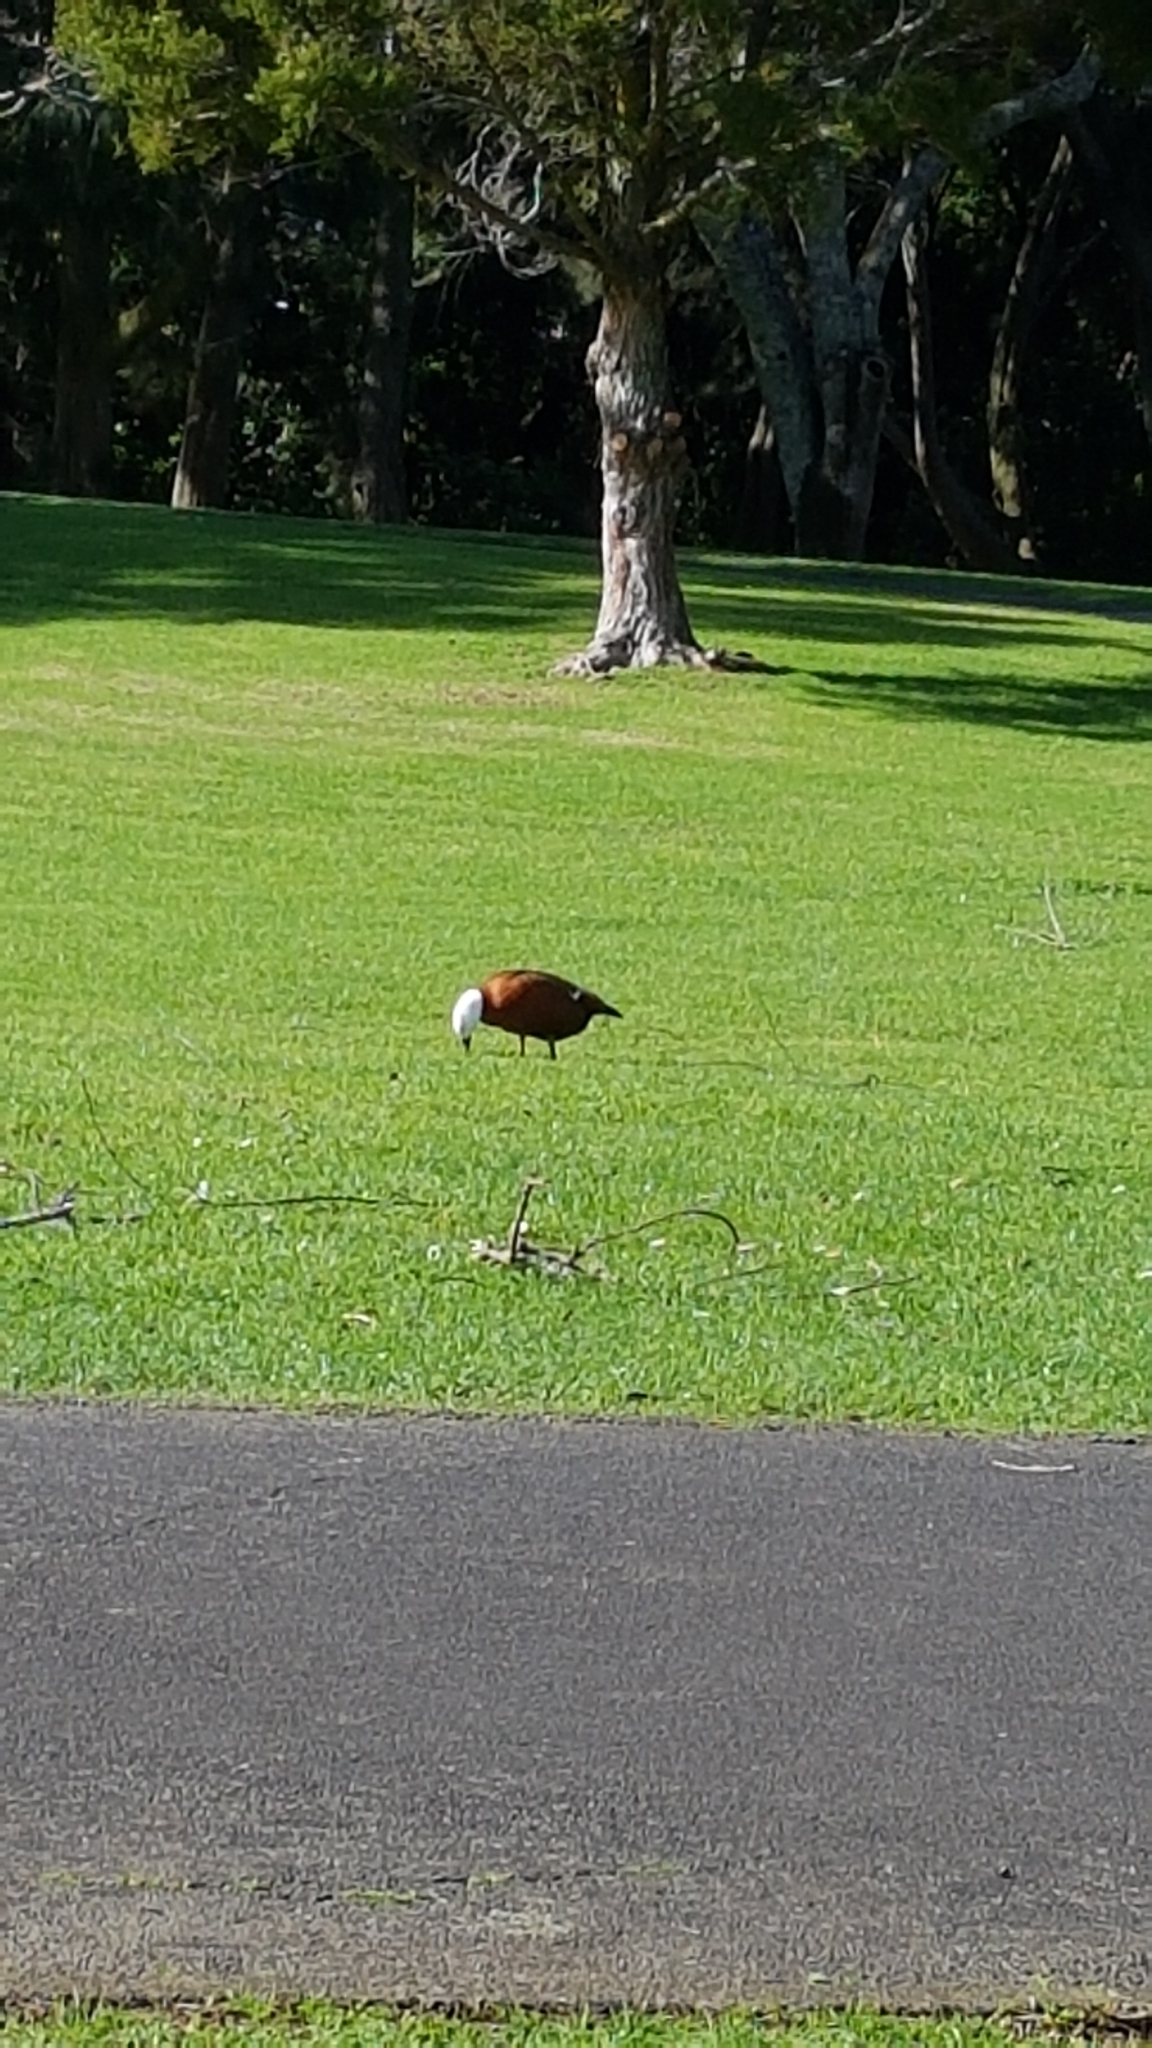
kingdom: Animalia
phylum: Chordata
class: Aves
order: Anseriformes
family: Anatidae
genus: Tadorna
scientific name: Tadorna variegata
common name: Paradise shelduck
